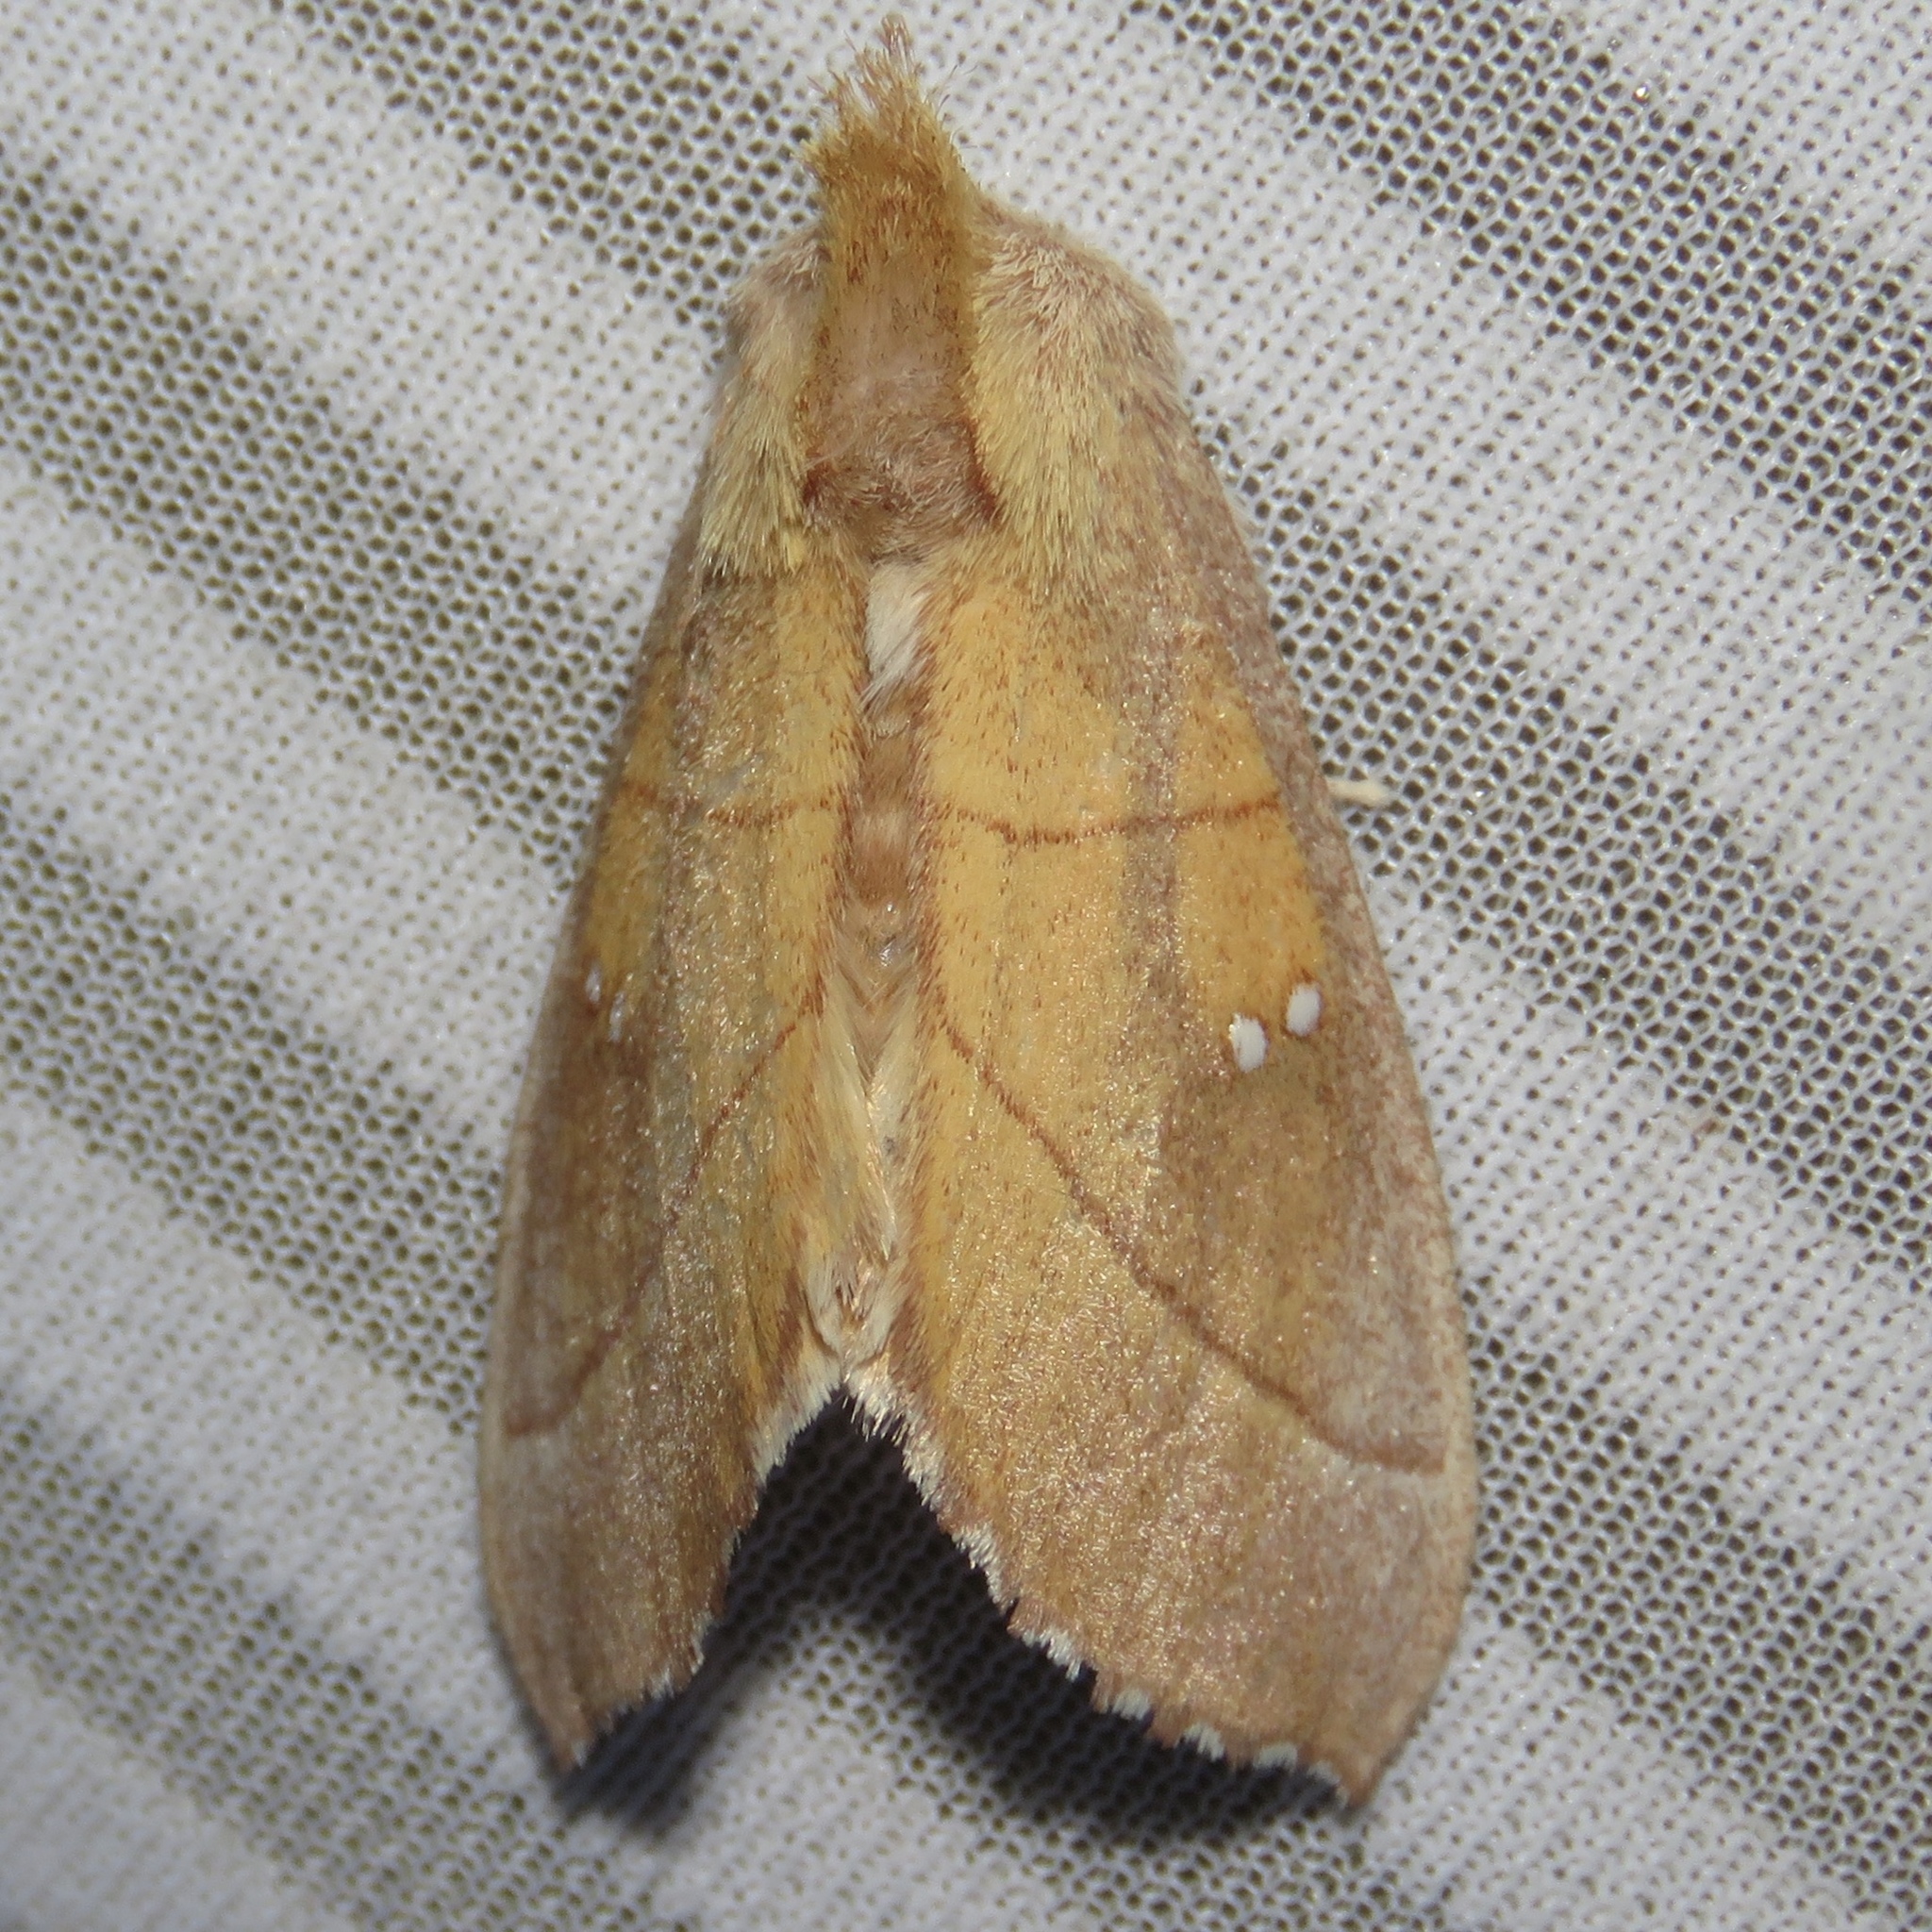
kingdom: Animalia
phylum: Arthropoda
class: Insecta
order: Lepidoptera
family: Notodontidae
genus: Nadata
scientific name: Nadata gibbosa
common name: White-dotted prominent
